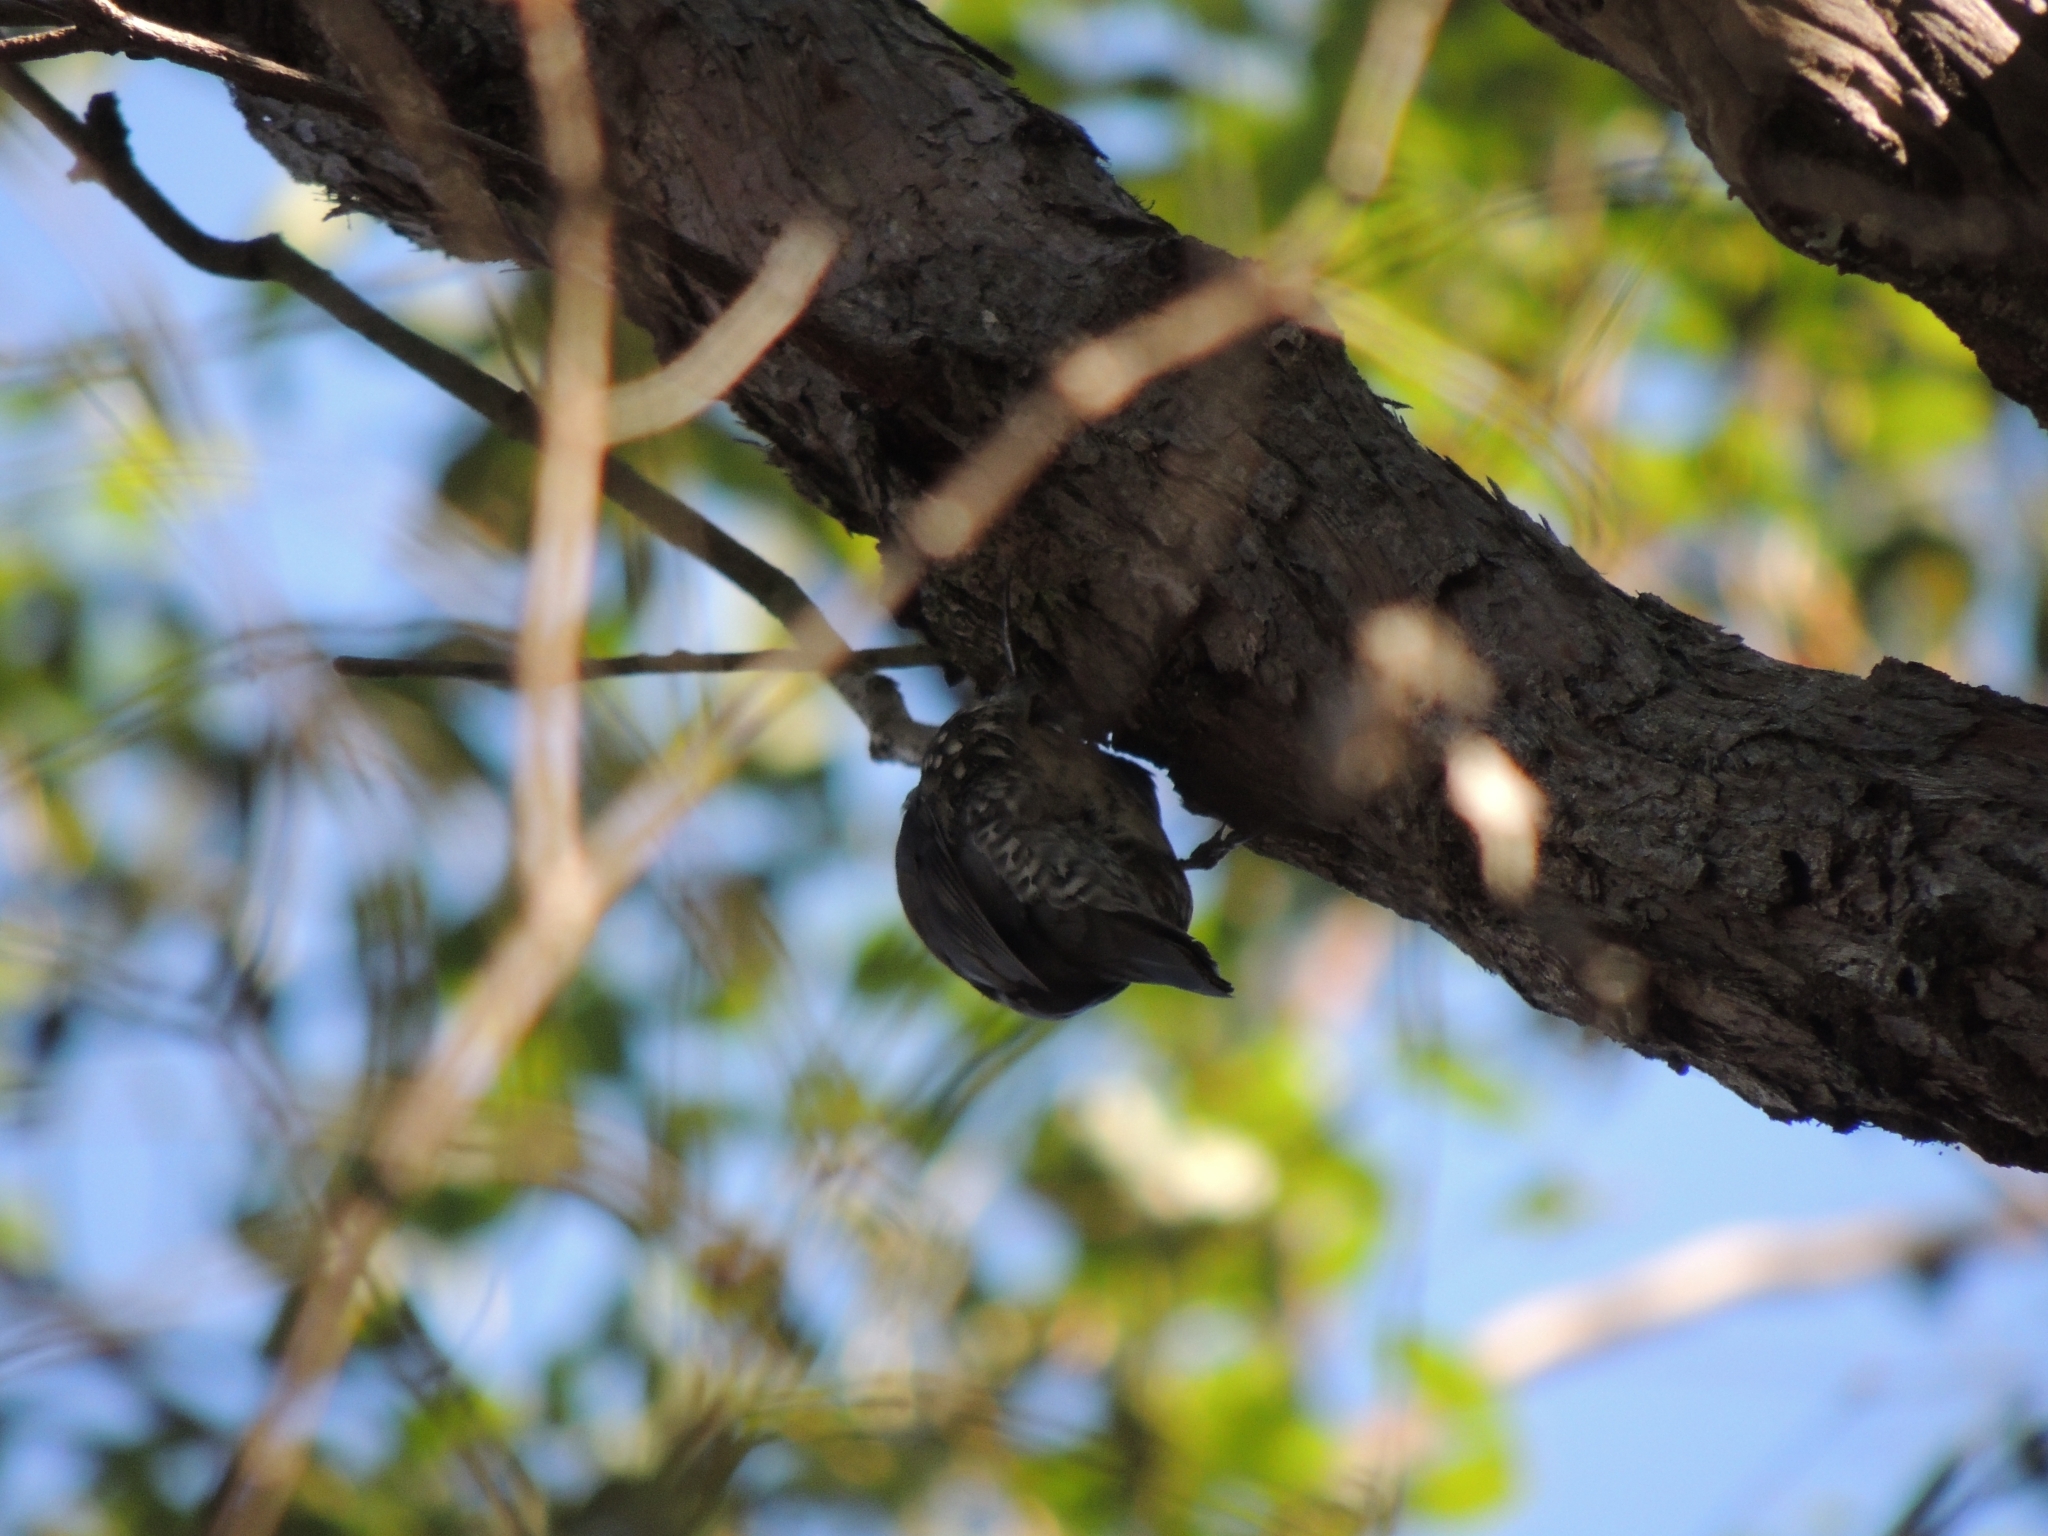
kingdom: Animalia
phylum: Chordata
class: Aves
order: Passeriformes
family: Climacteridae
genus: Cormobates
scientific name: Cormobates leucophaea
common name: White-throated treecreeper
